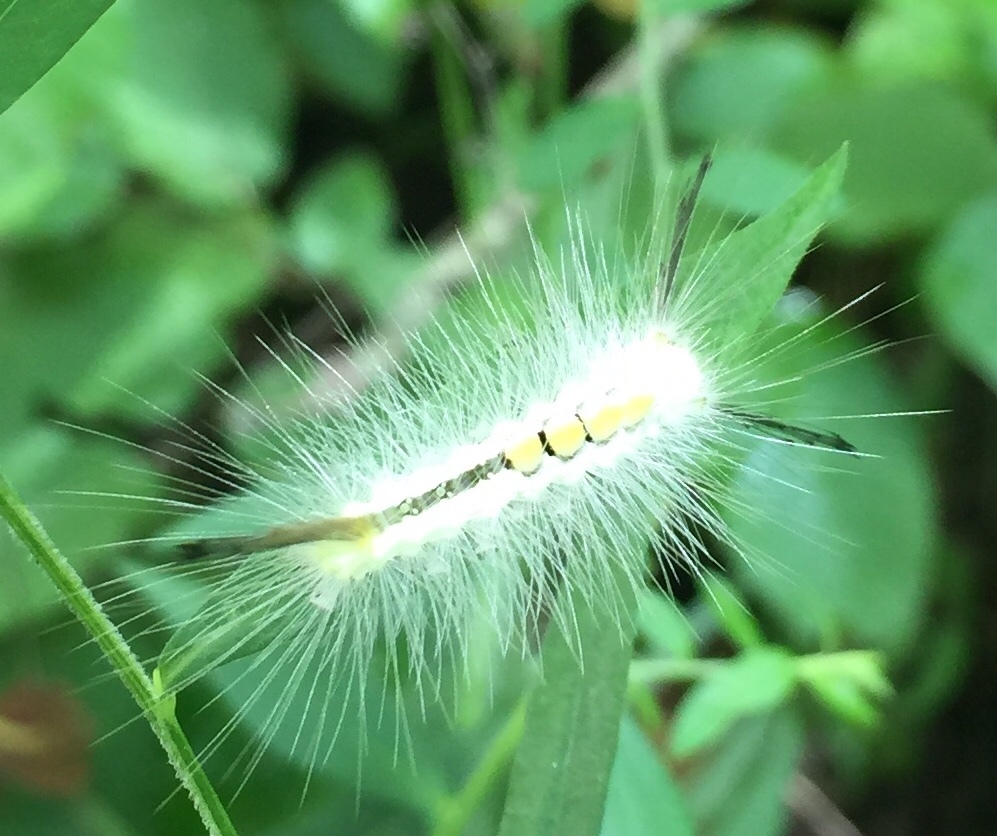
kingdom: Animalia
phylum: Arthropoda
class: Insecta
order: Lepidoptera
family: Erebidae
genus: Orgyia
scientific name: Orgyia definita
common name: Definite tussock moth
